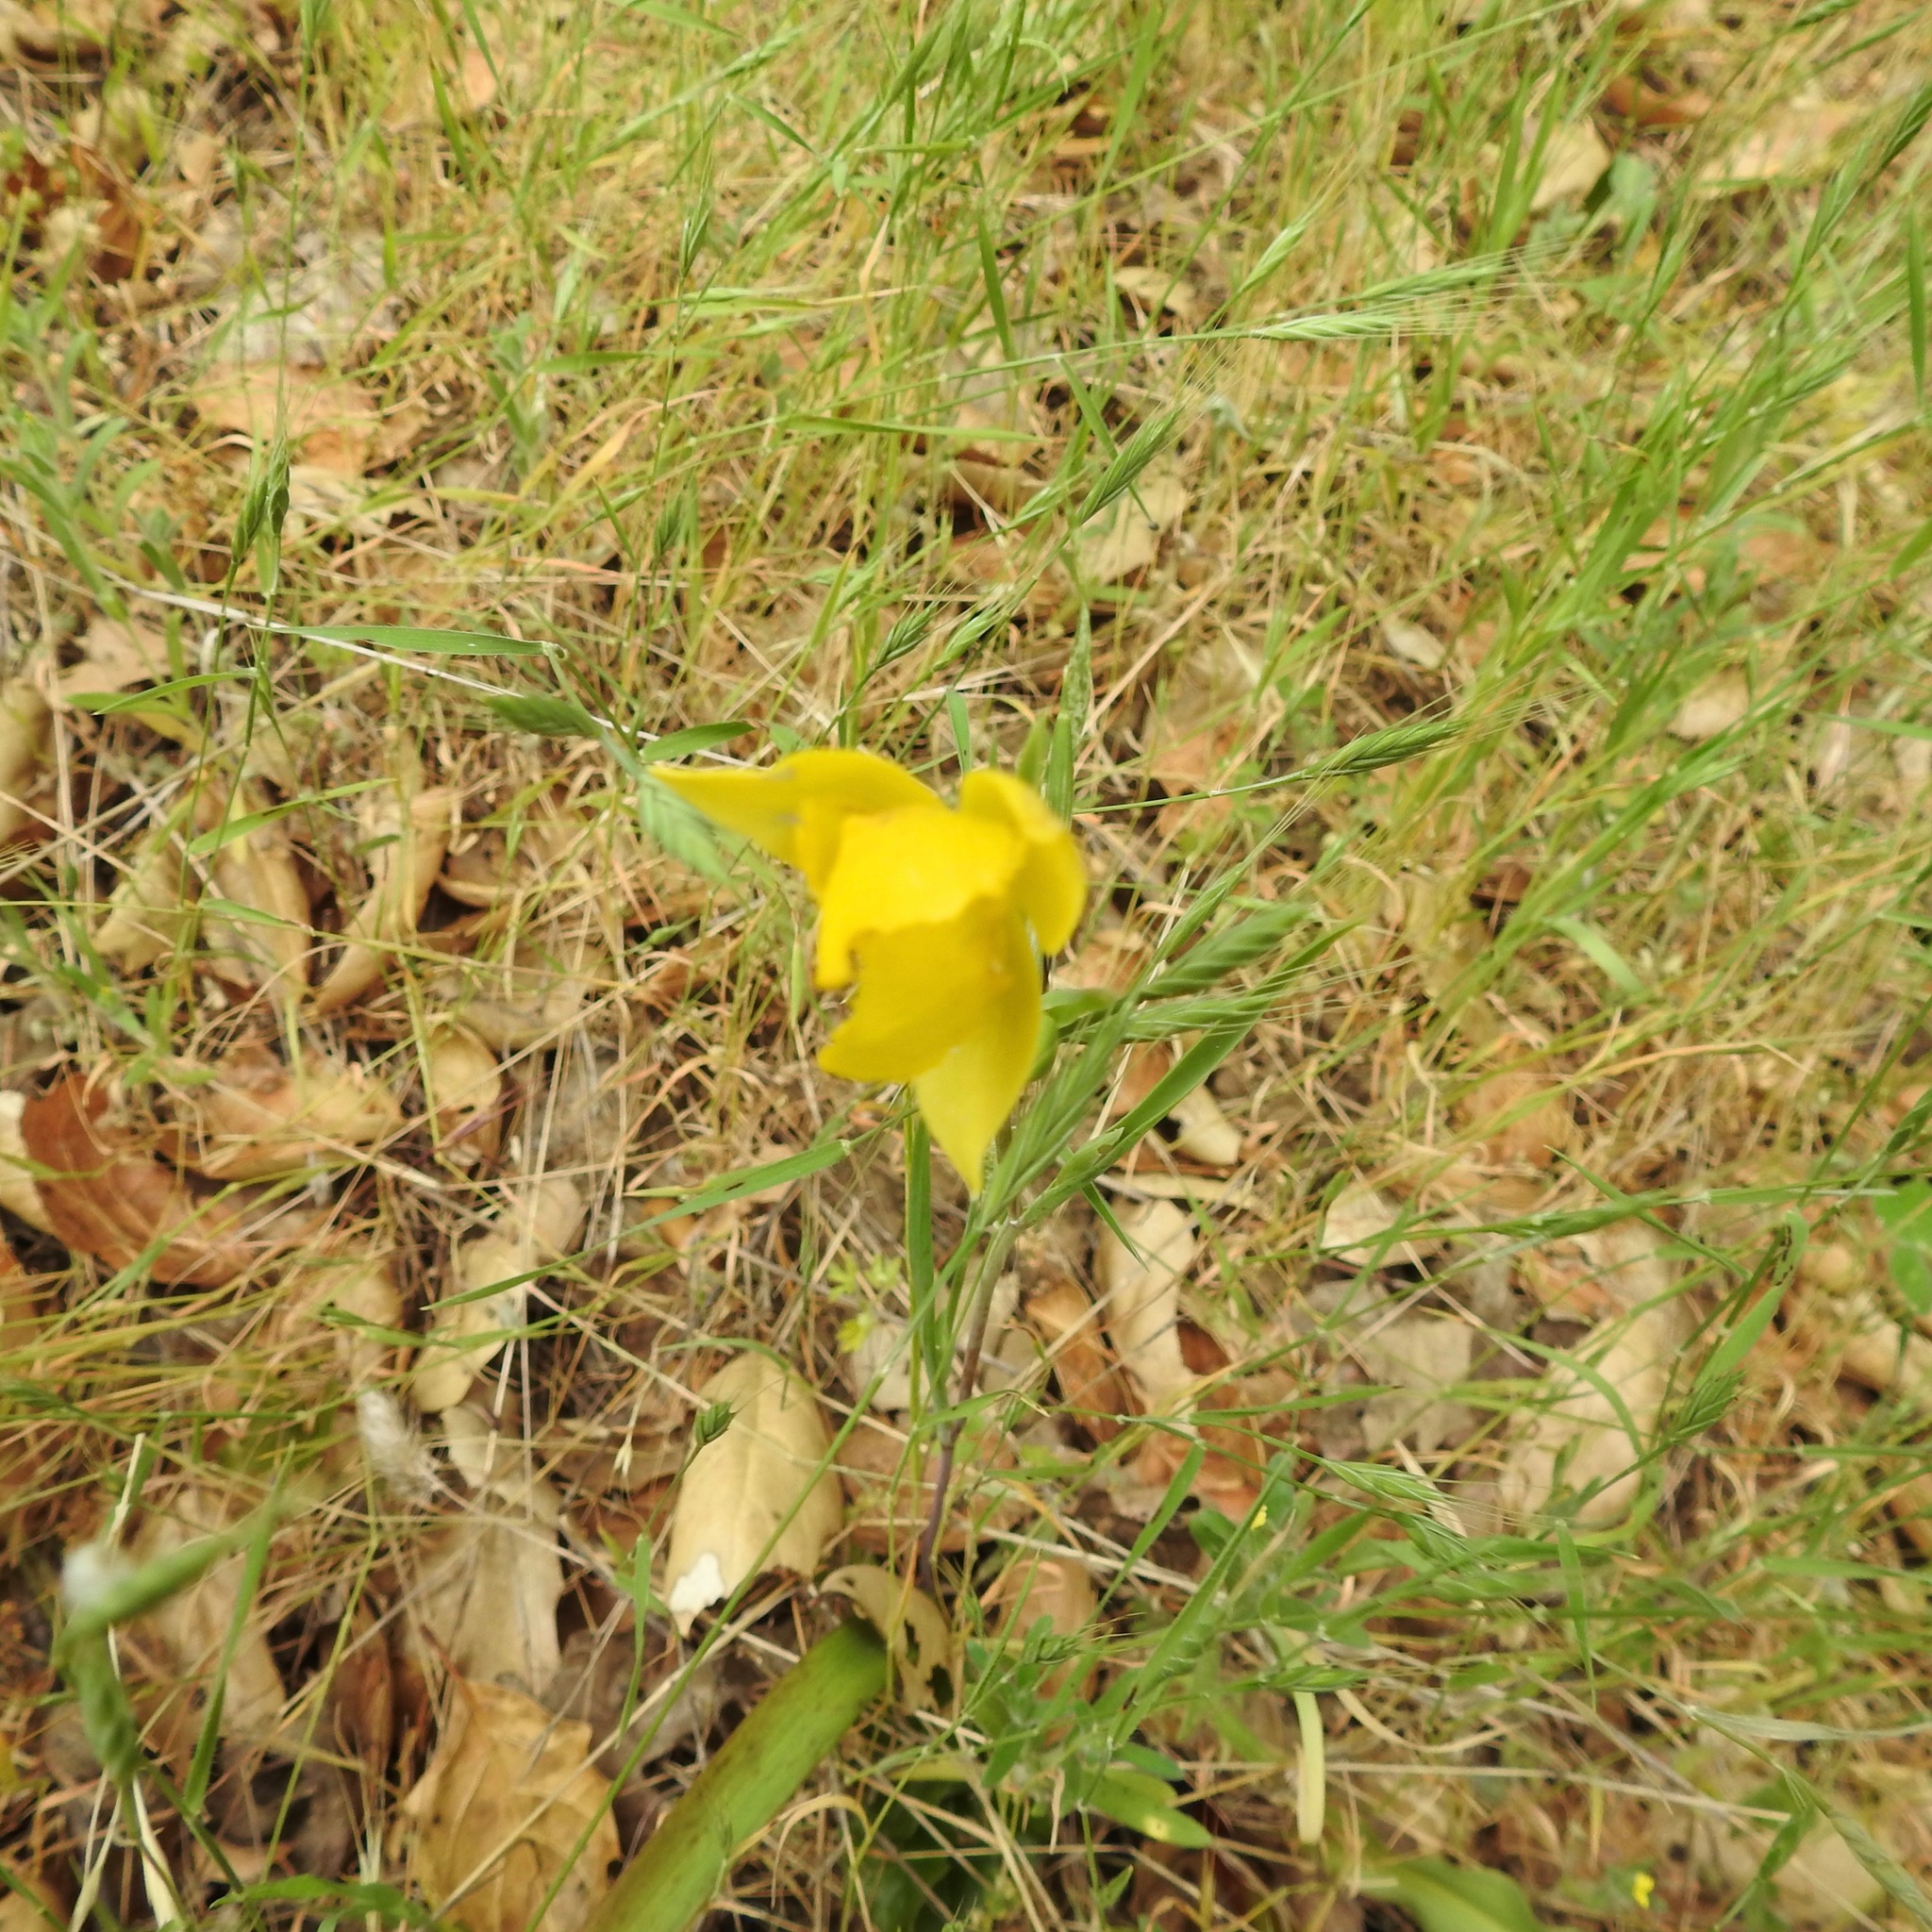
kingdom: Plantae
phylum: Tracheophyta
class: Liliopsida
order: Liliales
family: Liliaceae
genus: Calochortus
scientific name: Calochortus amabilis
